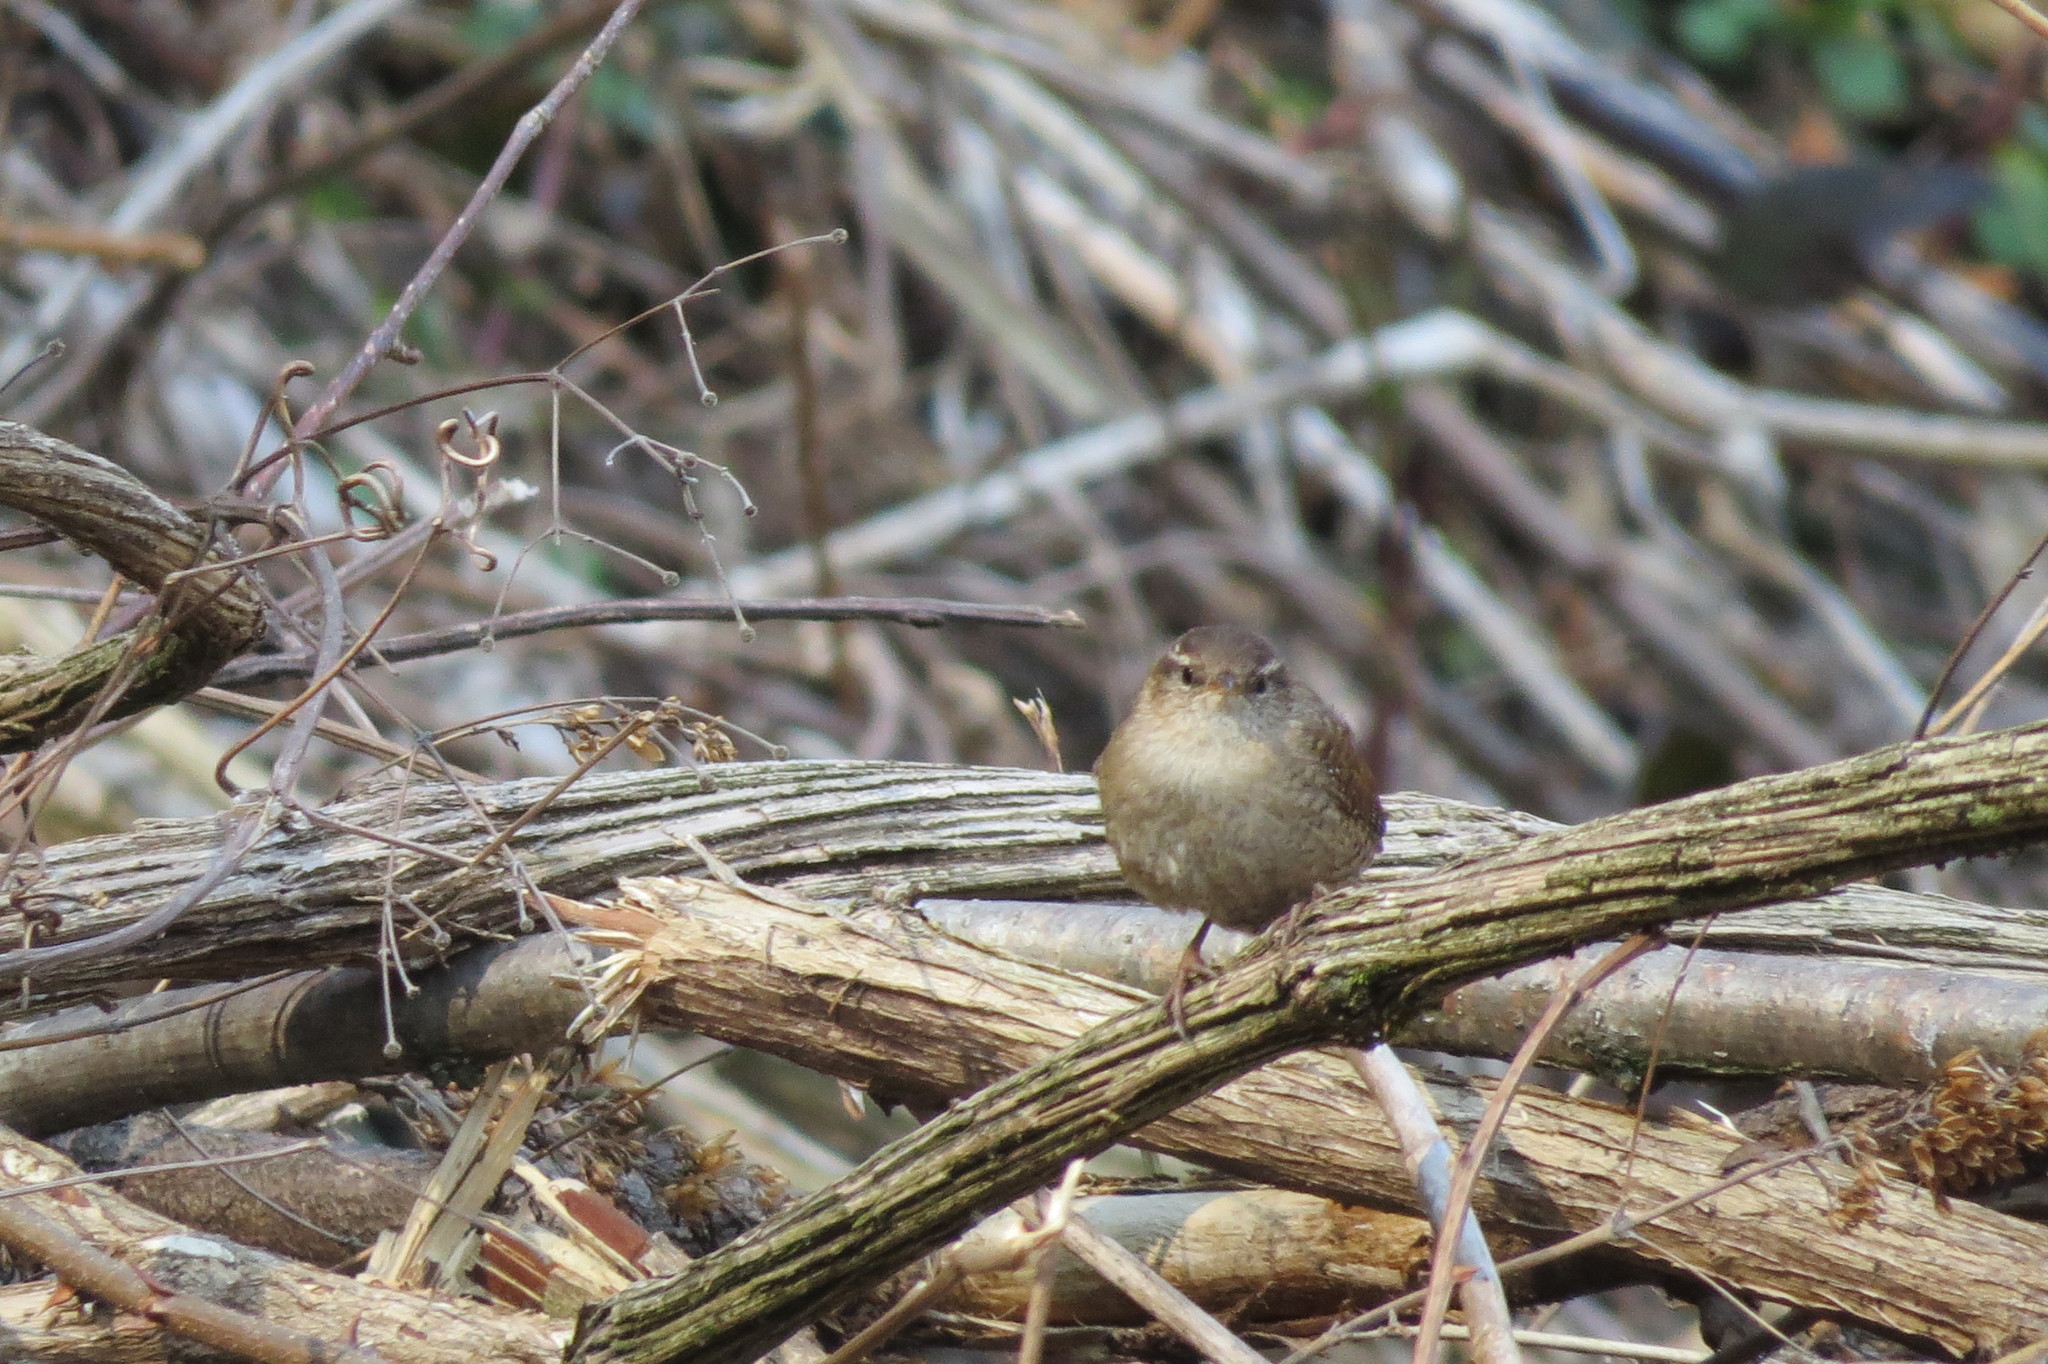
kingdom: Animalia
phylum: Chordata
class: Aves
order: Passeriformes
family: Troglodytidae
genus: Troglodytes
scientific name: Troglodytes troglodytes
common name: Eurasian wren
